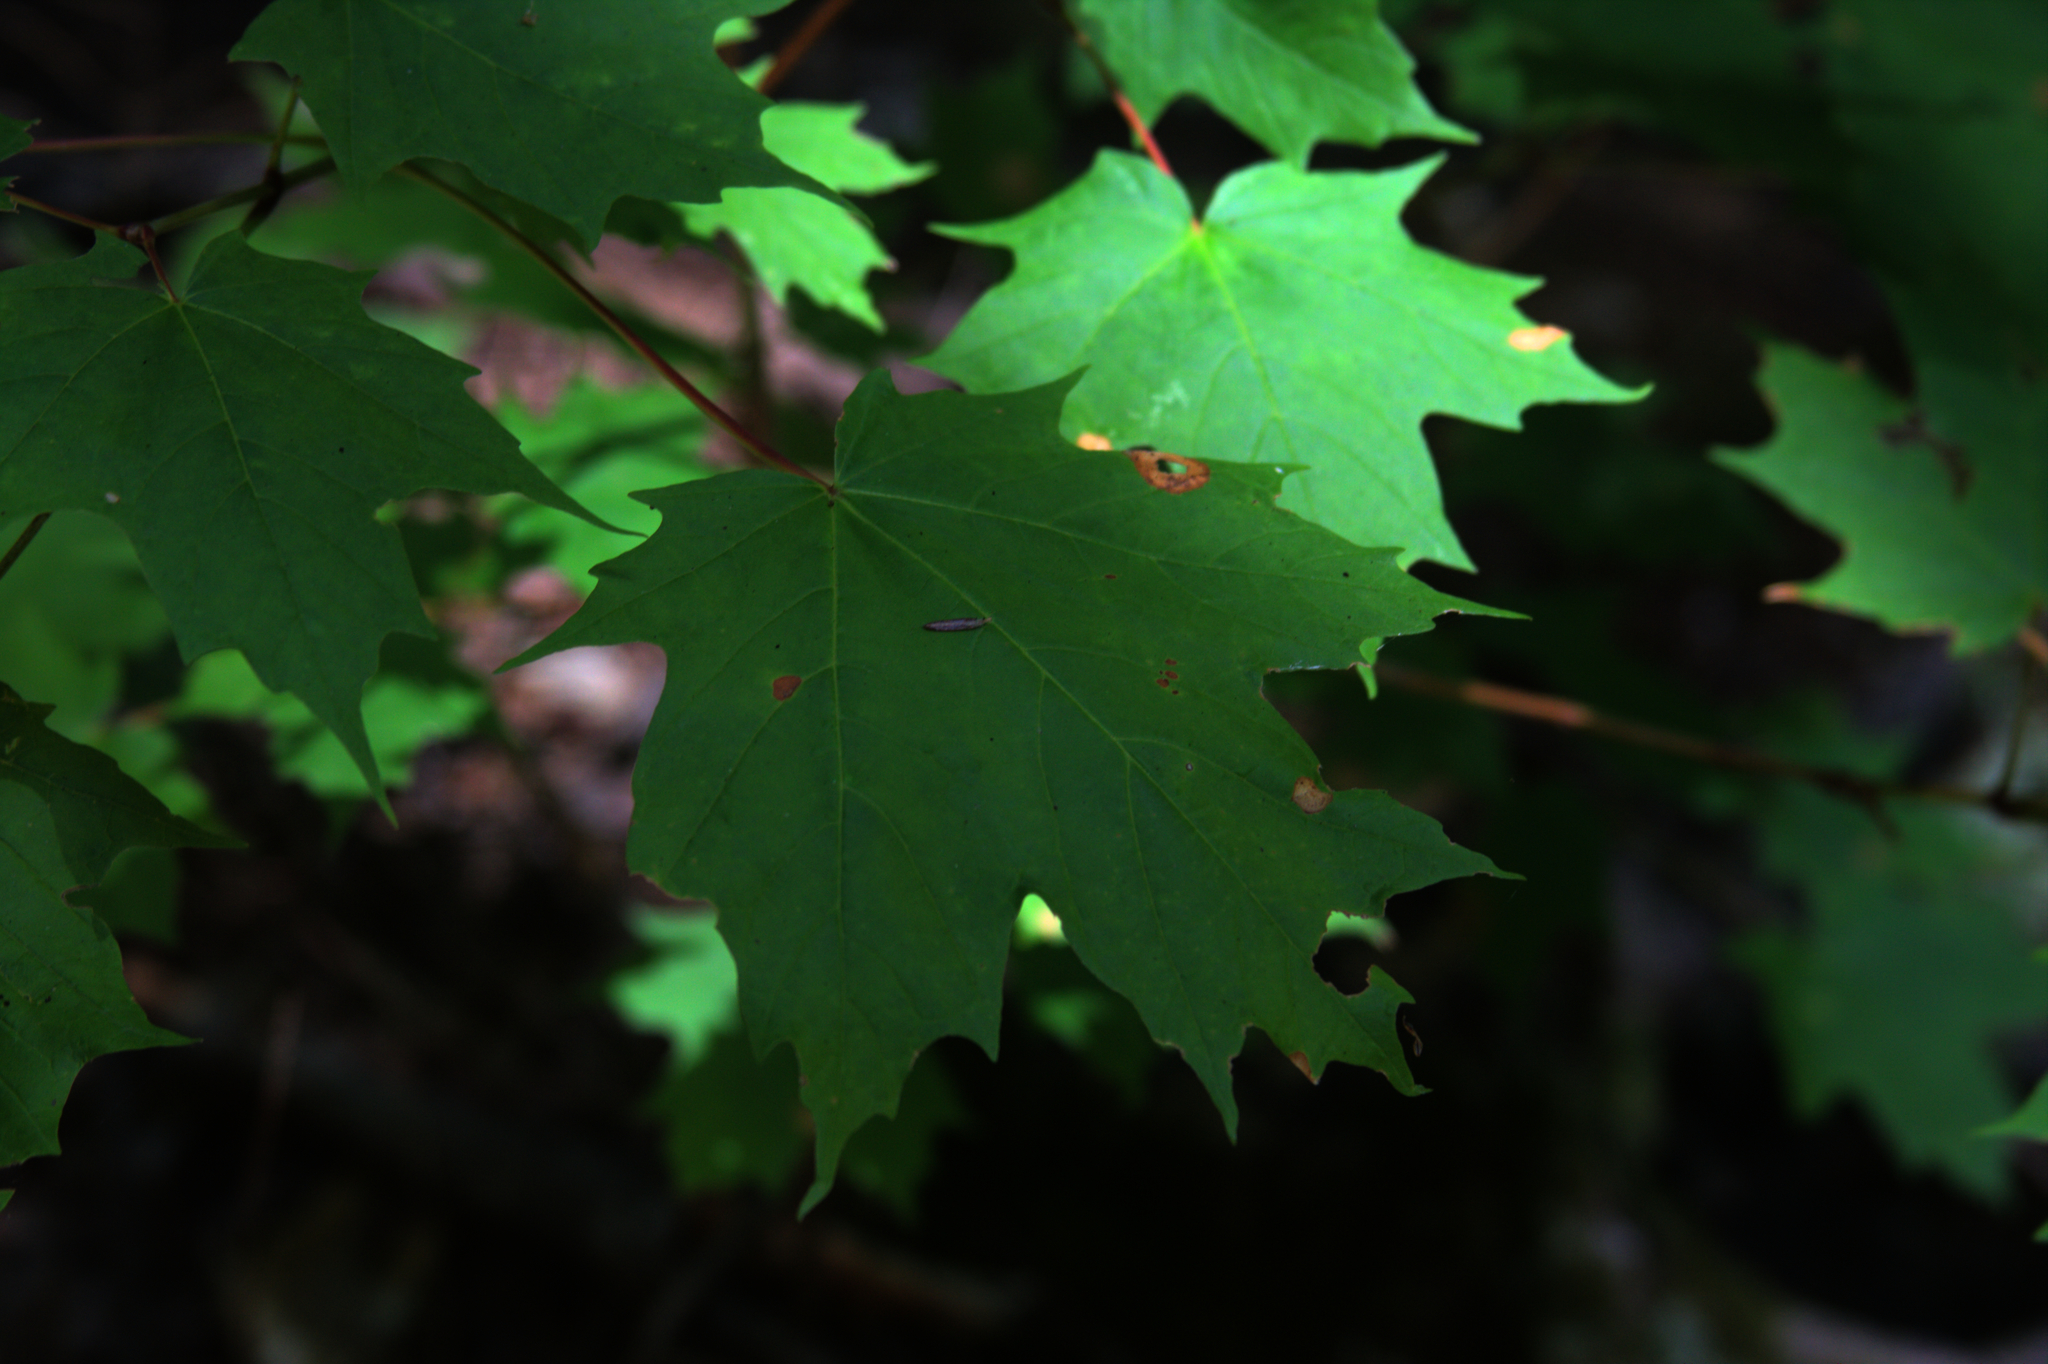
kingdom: Plantae
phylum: Tracheophyta
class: Magnoliopsida
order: Sapindales
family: Sapindaceae
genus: Acer
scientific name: Acer saccharum
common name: Sugar maple
